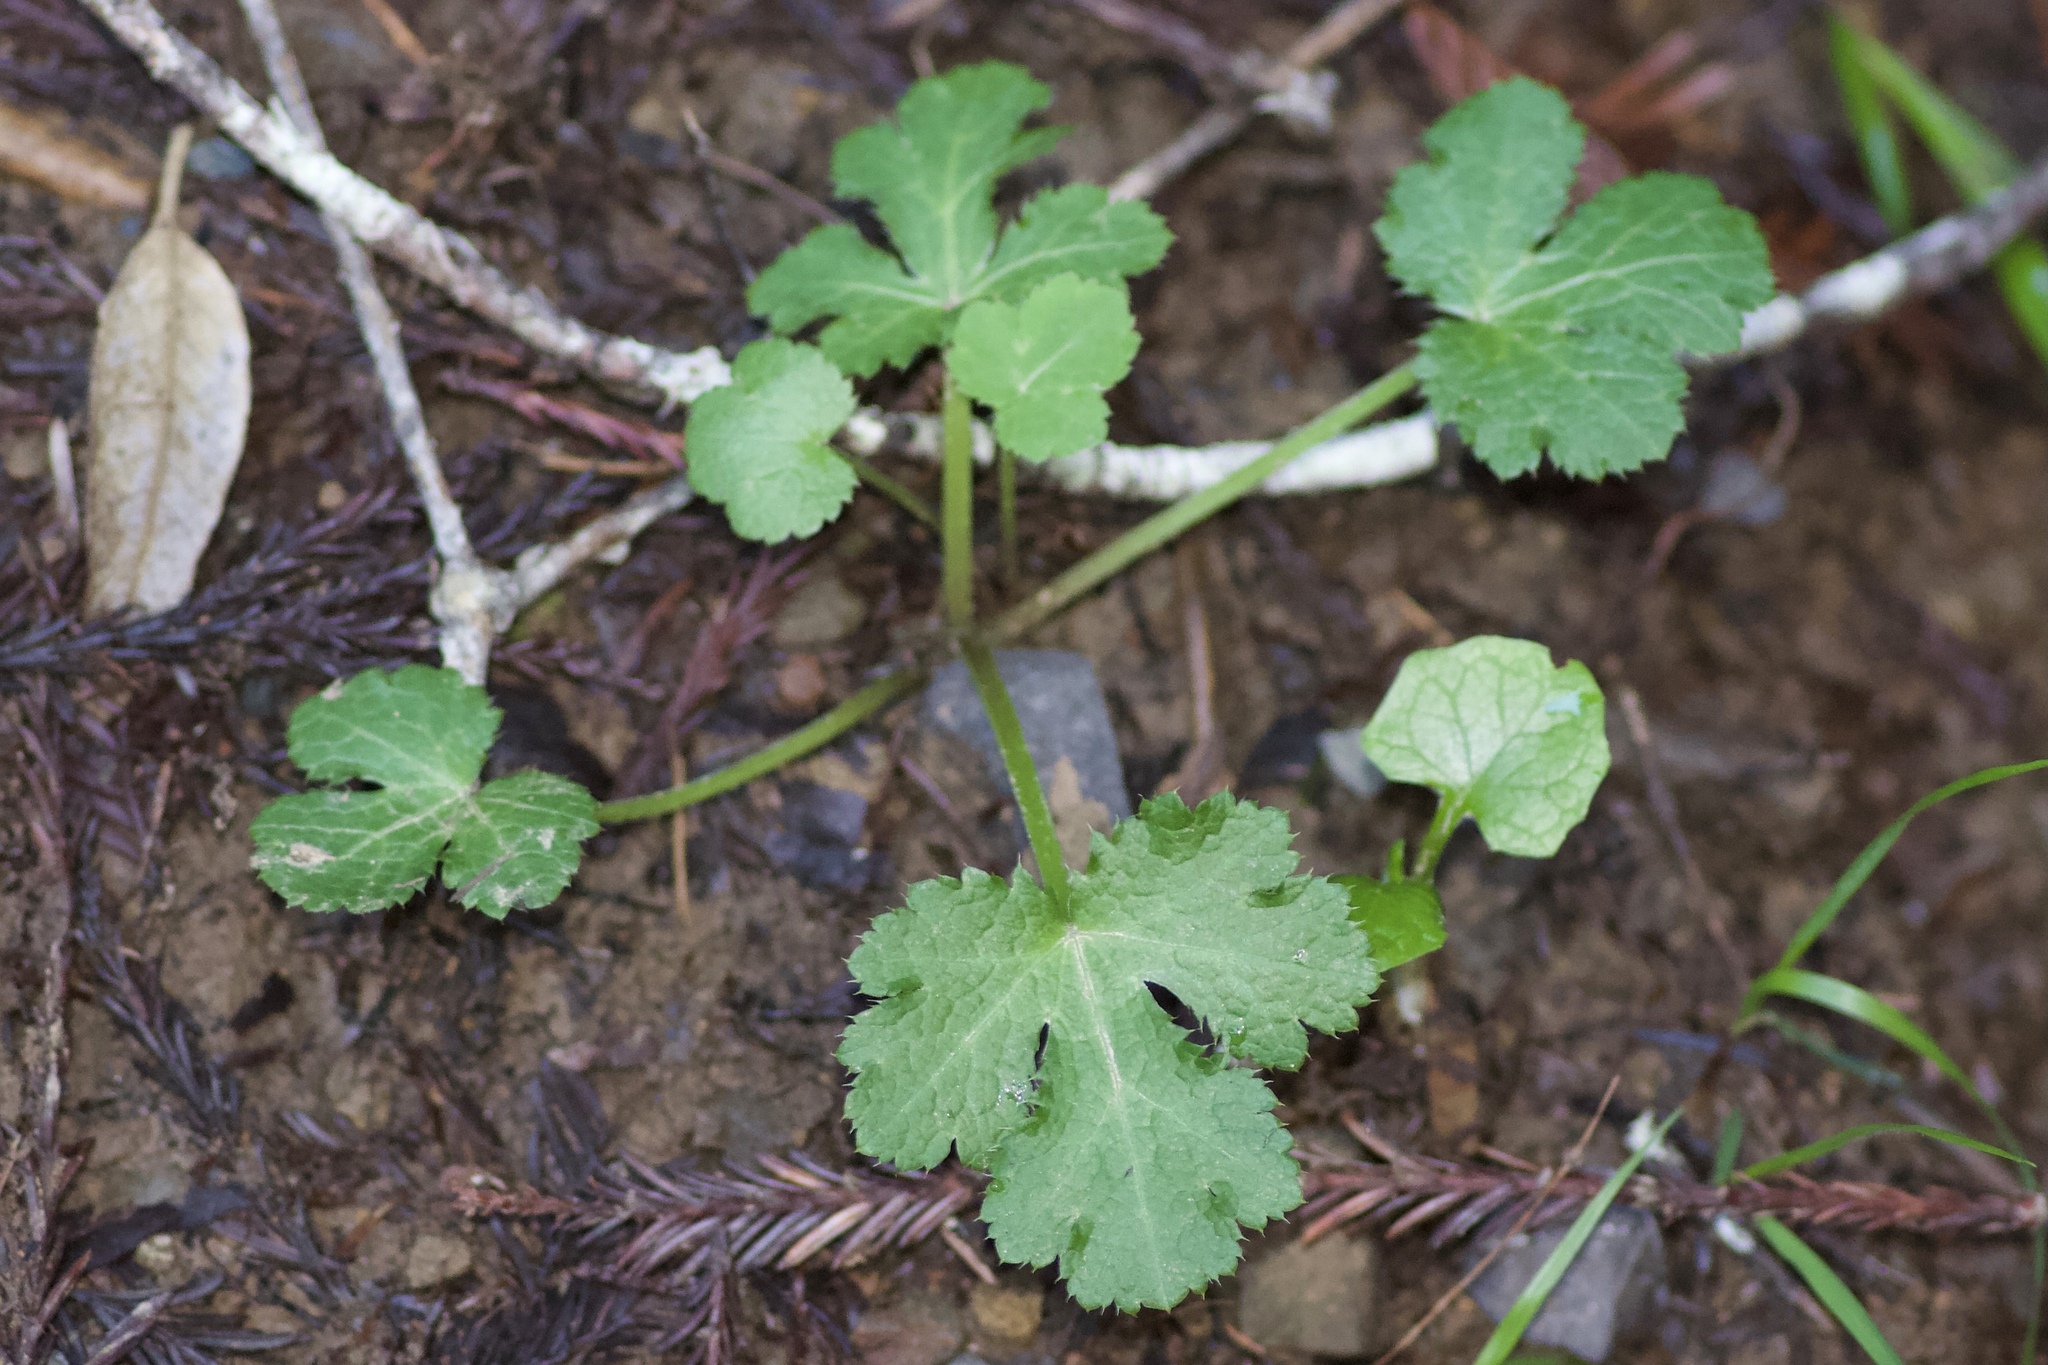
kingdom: Plantae
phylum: Tracheophyta
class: Magnoliopsida
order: Apiales
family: Apiaceae
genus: Sanicula
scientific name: Sanicula crassicaulis
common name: Western snakeroot
